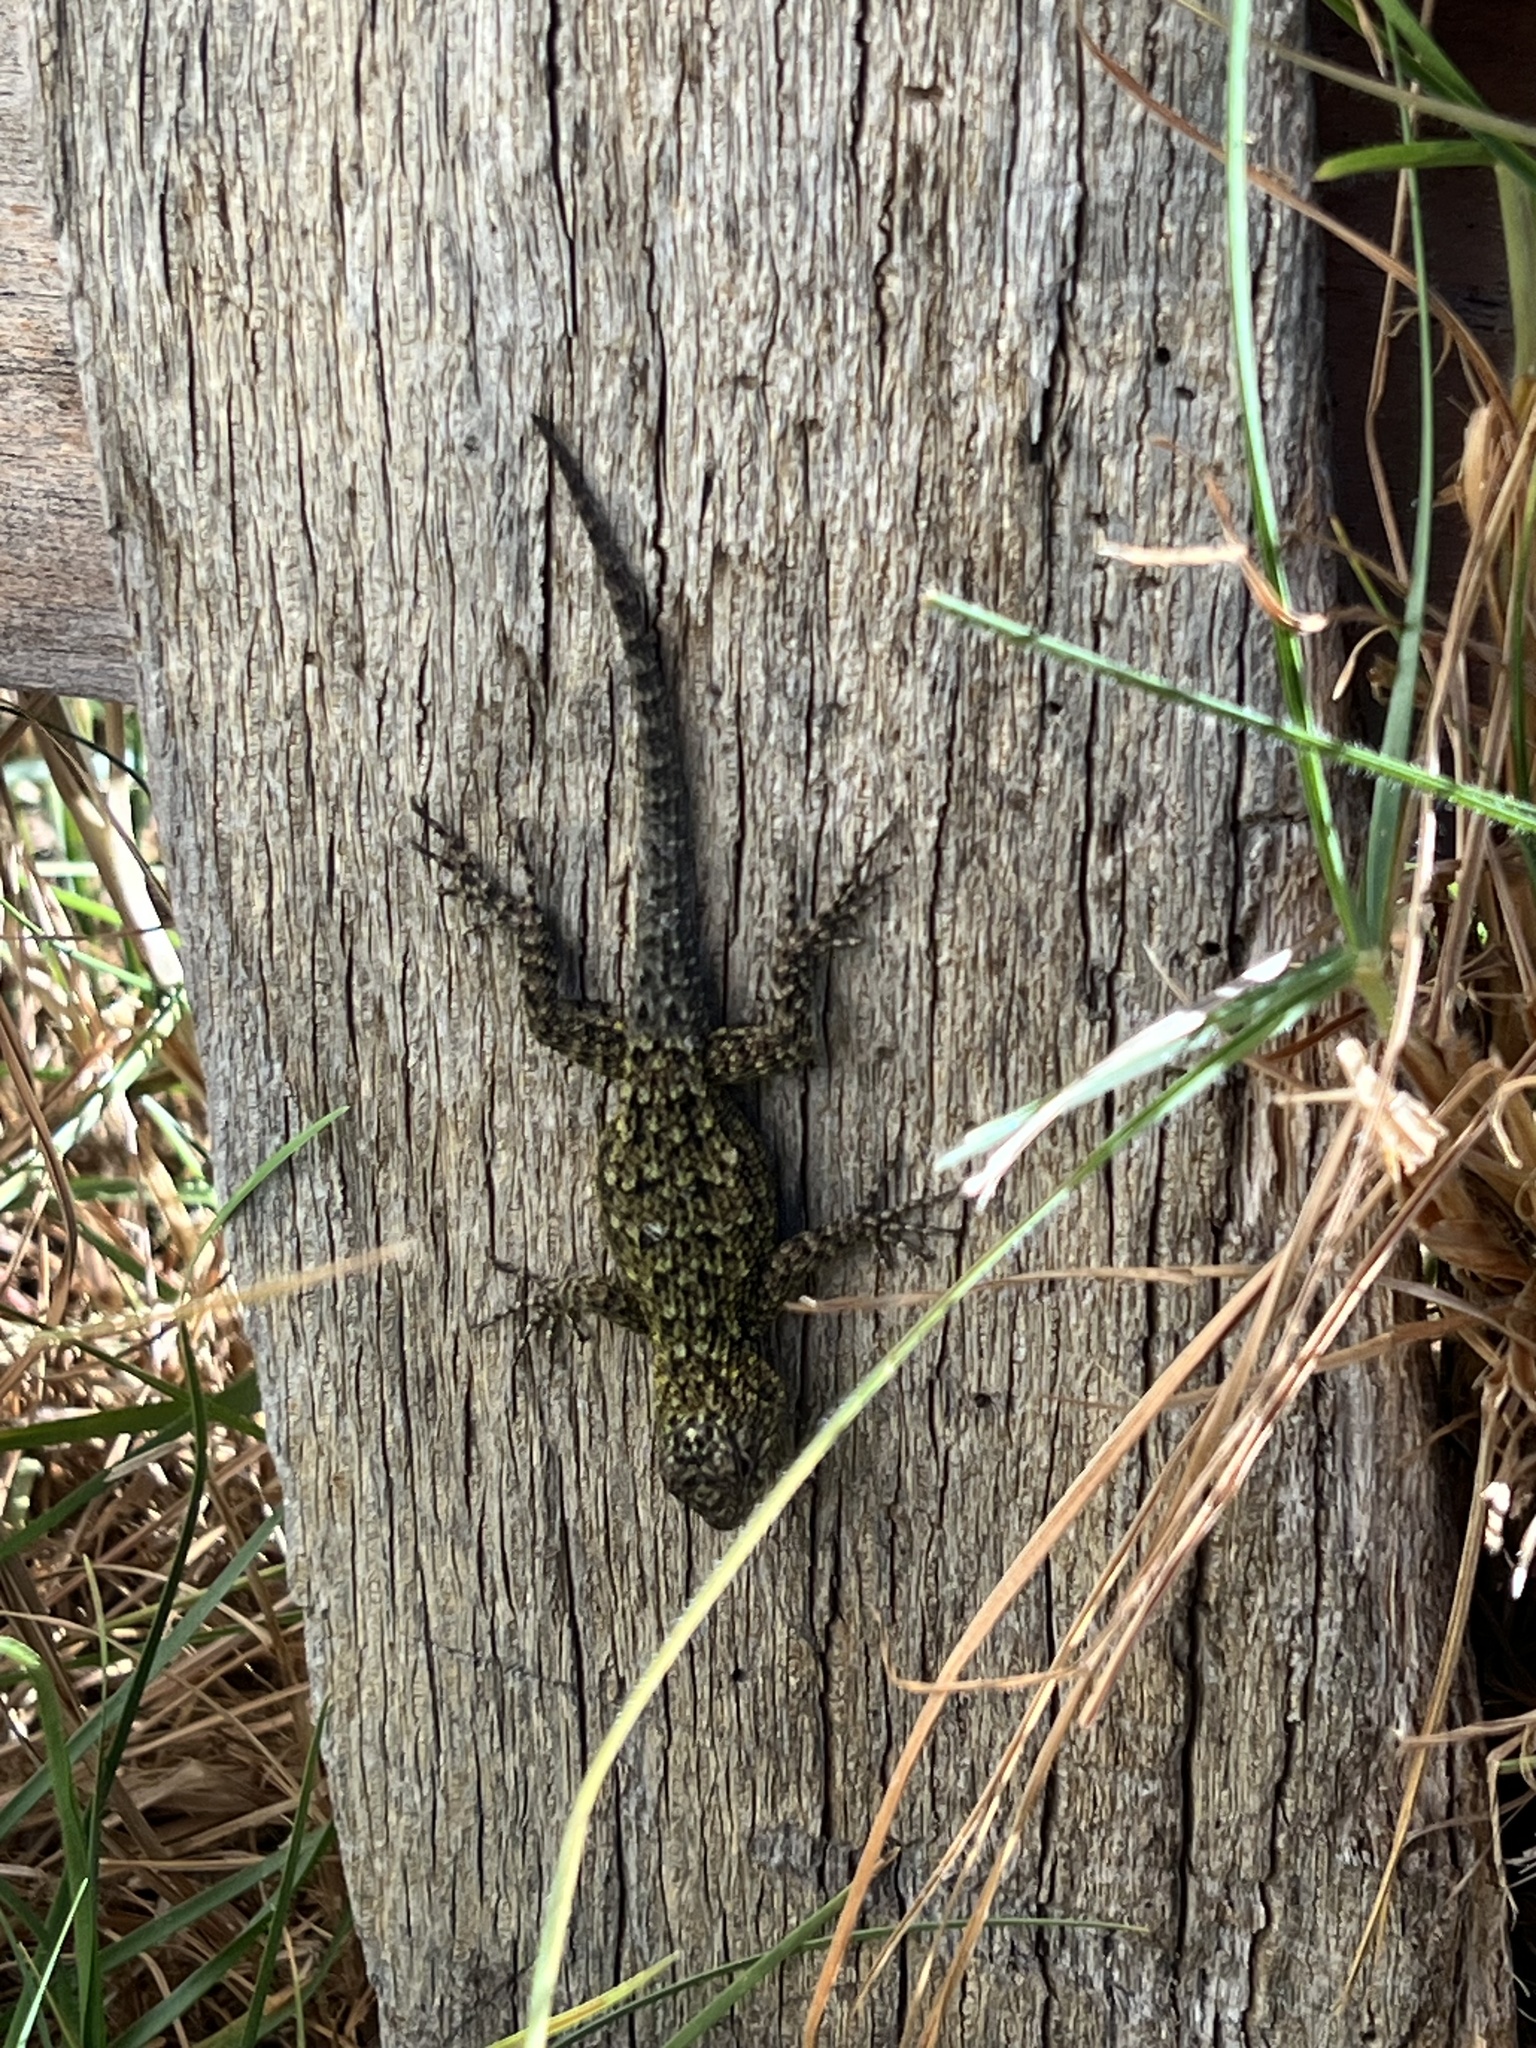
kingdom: Animalia
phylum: Chordata
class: Squamata
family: Phrynosomatidae
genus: Sceloporus
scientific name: Sceloporus malachiticus
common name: Green spiny lizard
